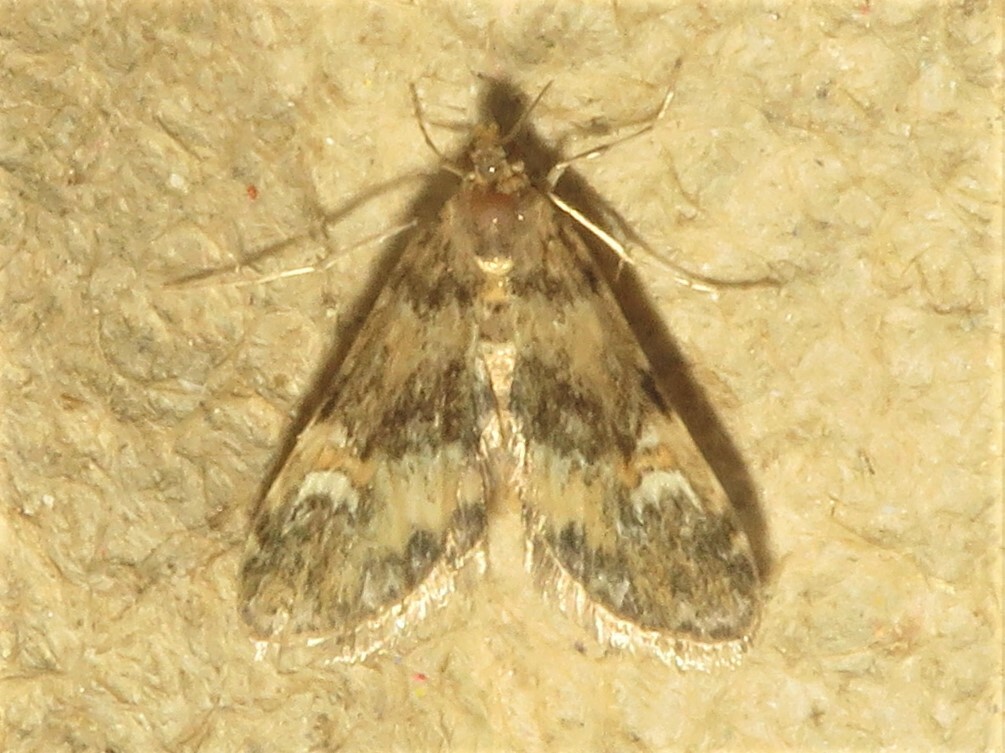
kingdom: Animalia
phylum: Arthropoda
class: Insecta
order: Lepidoptera
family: Crambidae
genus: Elophila
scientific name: Elophila obliteralis
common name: Waterlily leafcutter moth
